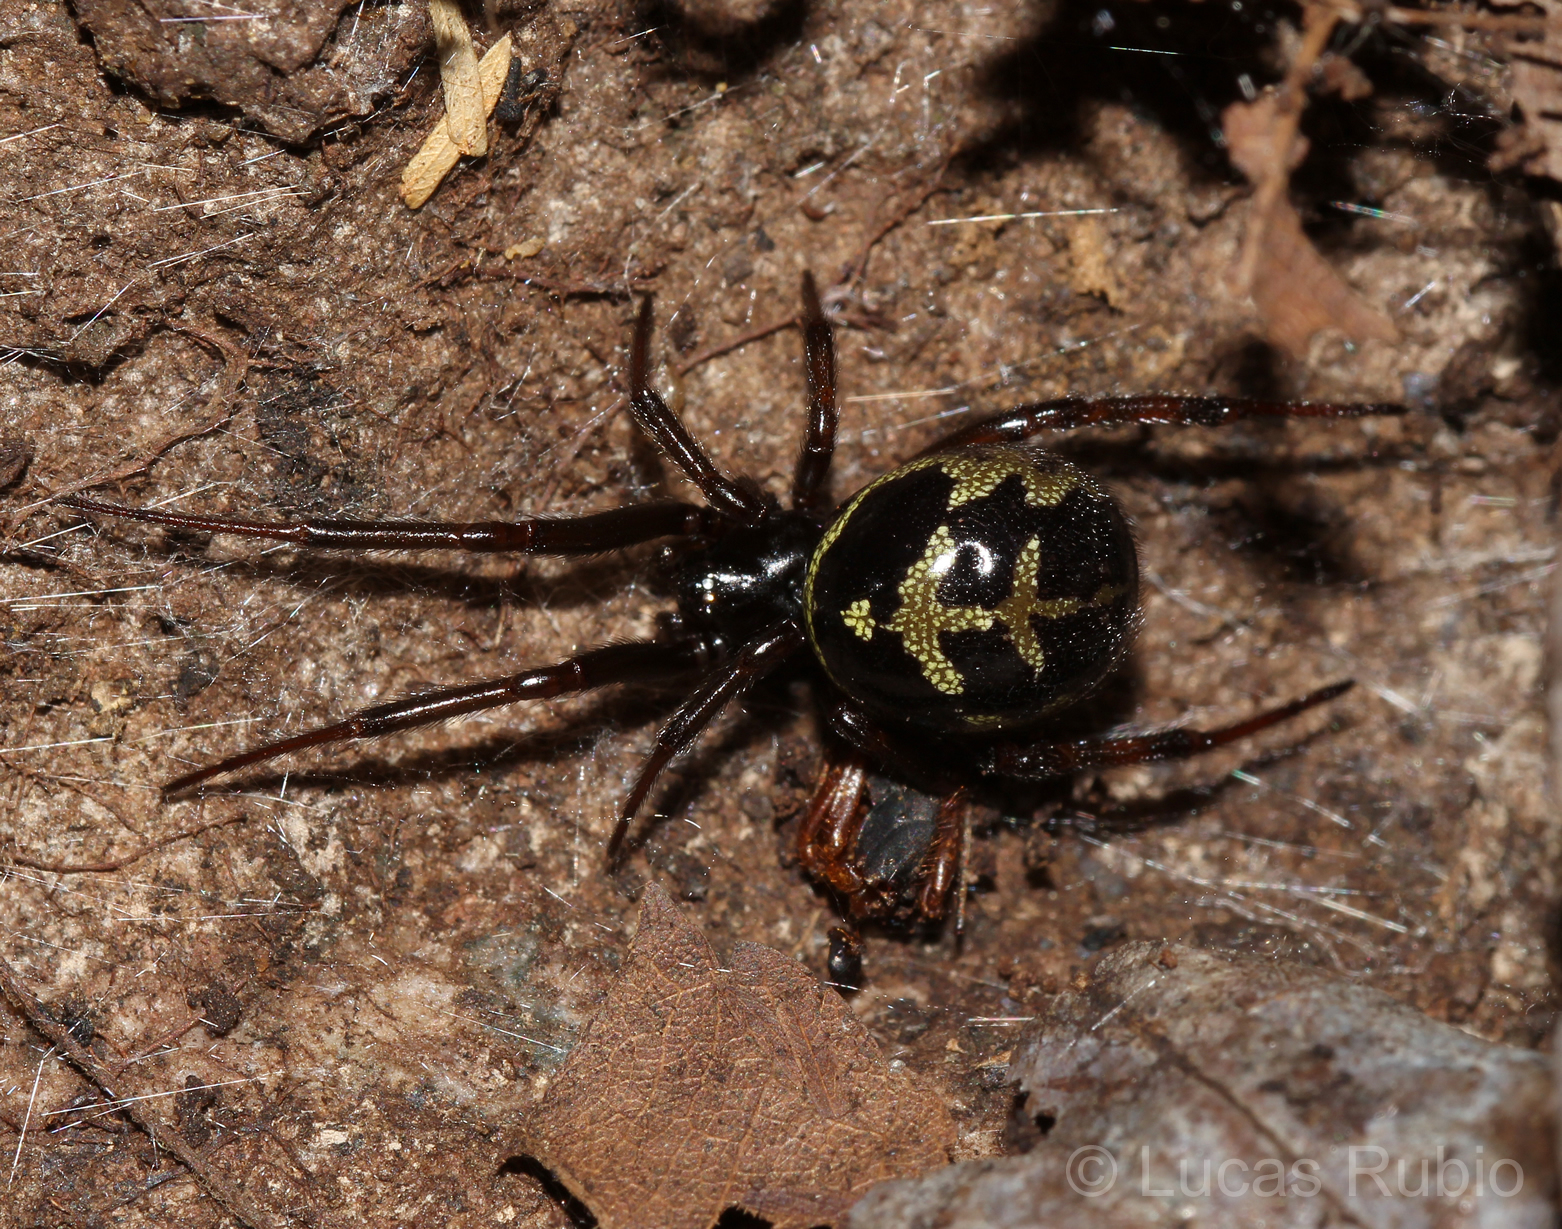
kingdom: Animalia
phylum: Arthropoda
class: Arachnida
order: Araneae
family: Theridiidae
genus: Steatoda
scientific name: Steatoda diamantina
